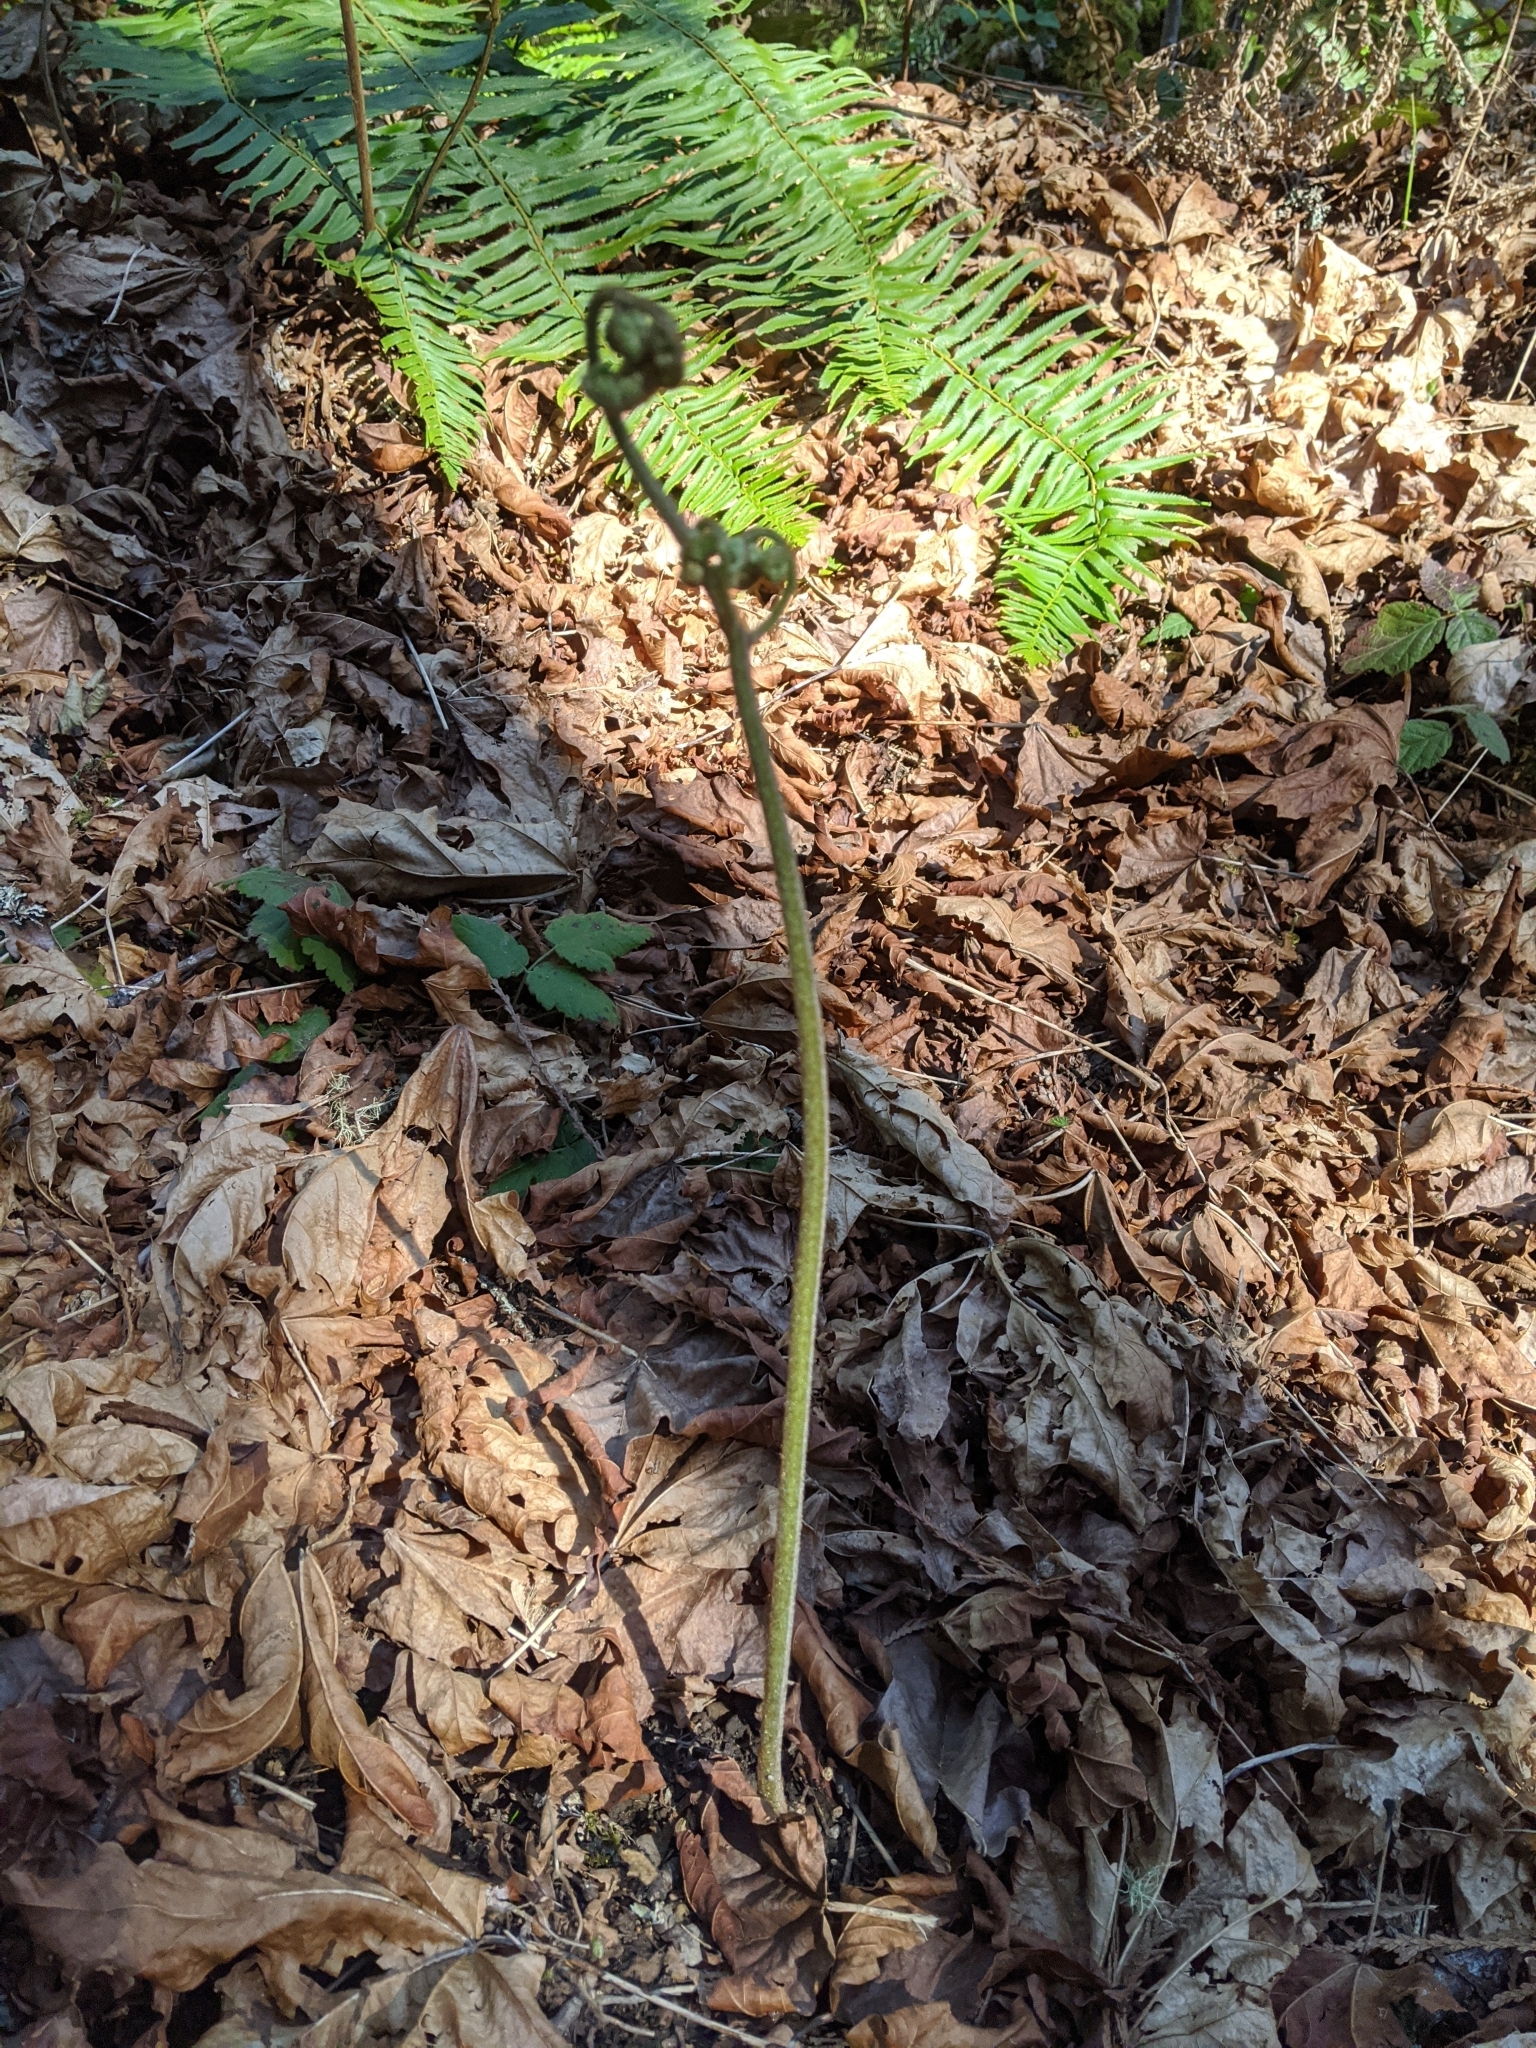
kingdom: Plantae
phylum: Tracheophyta
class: Polypodiopsida
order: Polypodiales
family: Dennstaedtiaceae
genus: Pteridium
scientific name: Pteridium aquilinum
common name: Bracken
